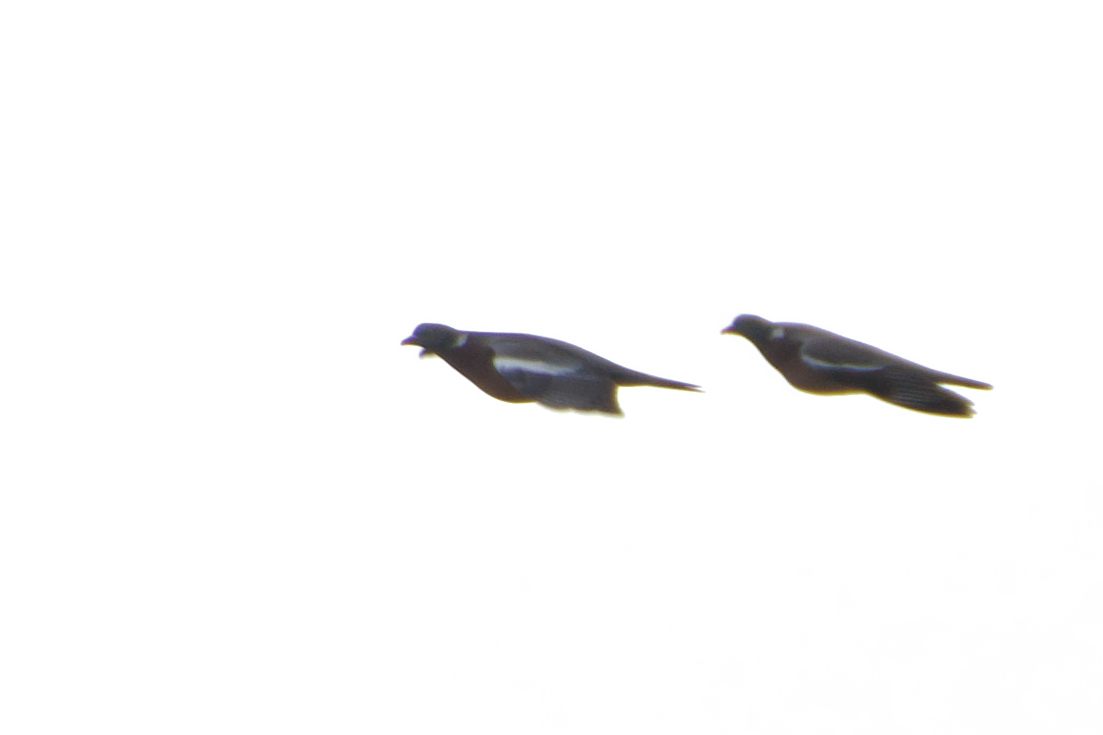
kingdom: Animalia
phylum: Chordata
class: Aves
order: Columbiformes
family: Columbidae
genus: Columba
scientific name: Columba palumbus
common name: Common wood pigeon
